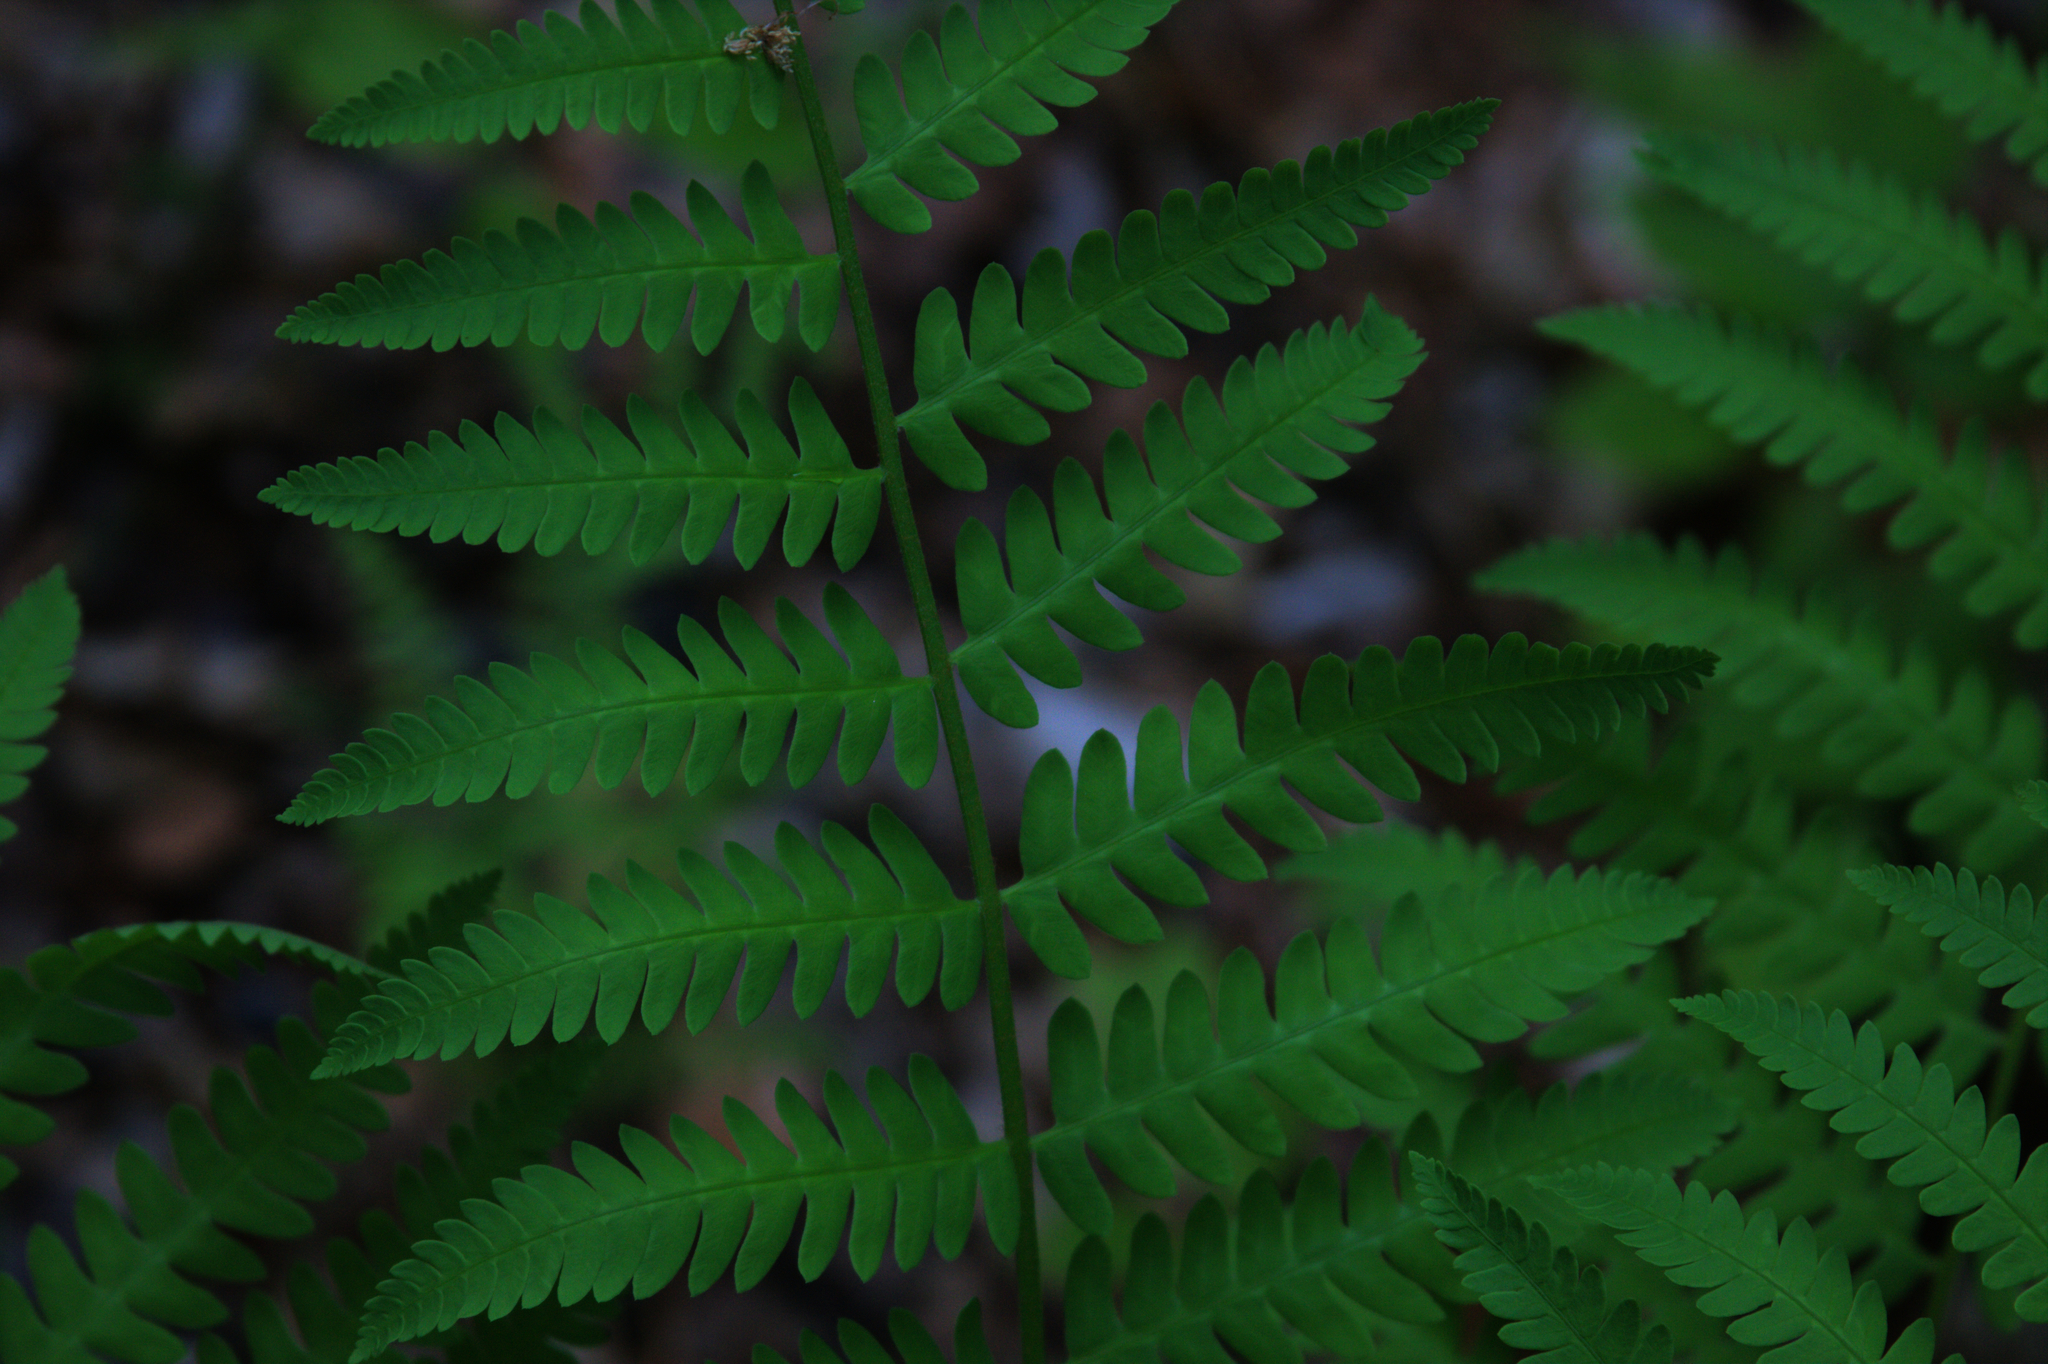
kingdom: Plantae
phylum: Tracheophyta
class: Polypodiopsida
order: Osmundales
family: Osmundaceae
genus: Claytosmunda
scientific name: Claytosmunda claytoniana
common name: Clayton's fern
